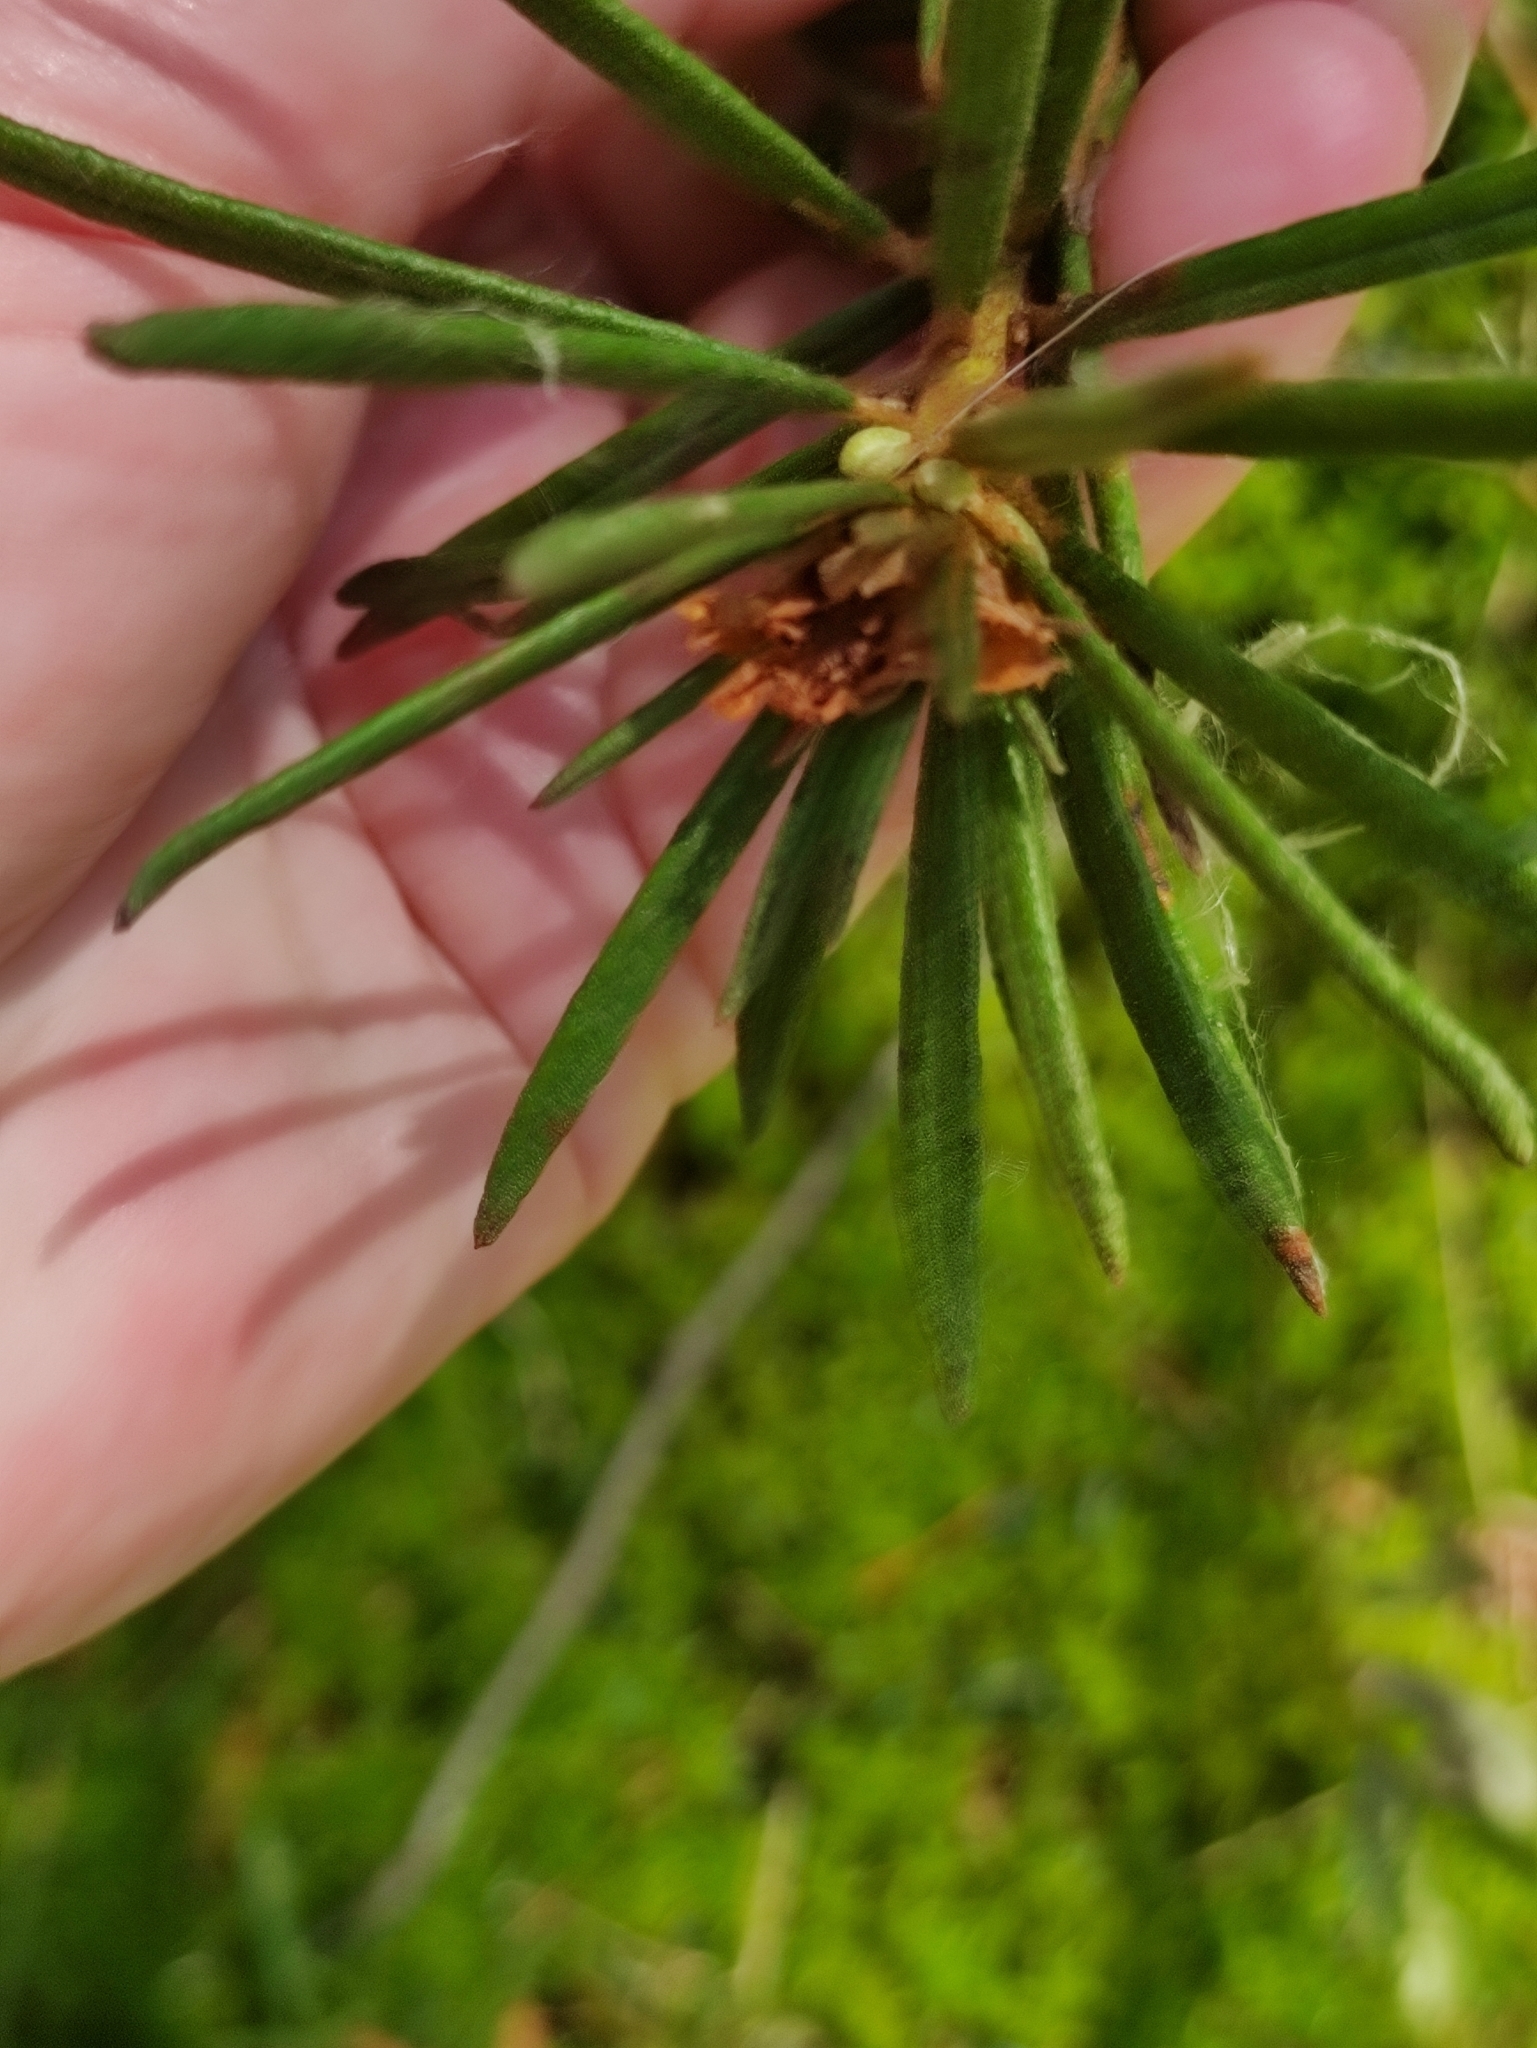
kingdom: Plantae
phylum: Tracheophyta
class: Magnoliopsida
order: Ericales
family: Ericaceae
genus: Rhododendron
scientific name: Rhododendron tomentosum
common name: Marsh labrador tea
